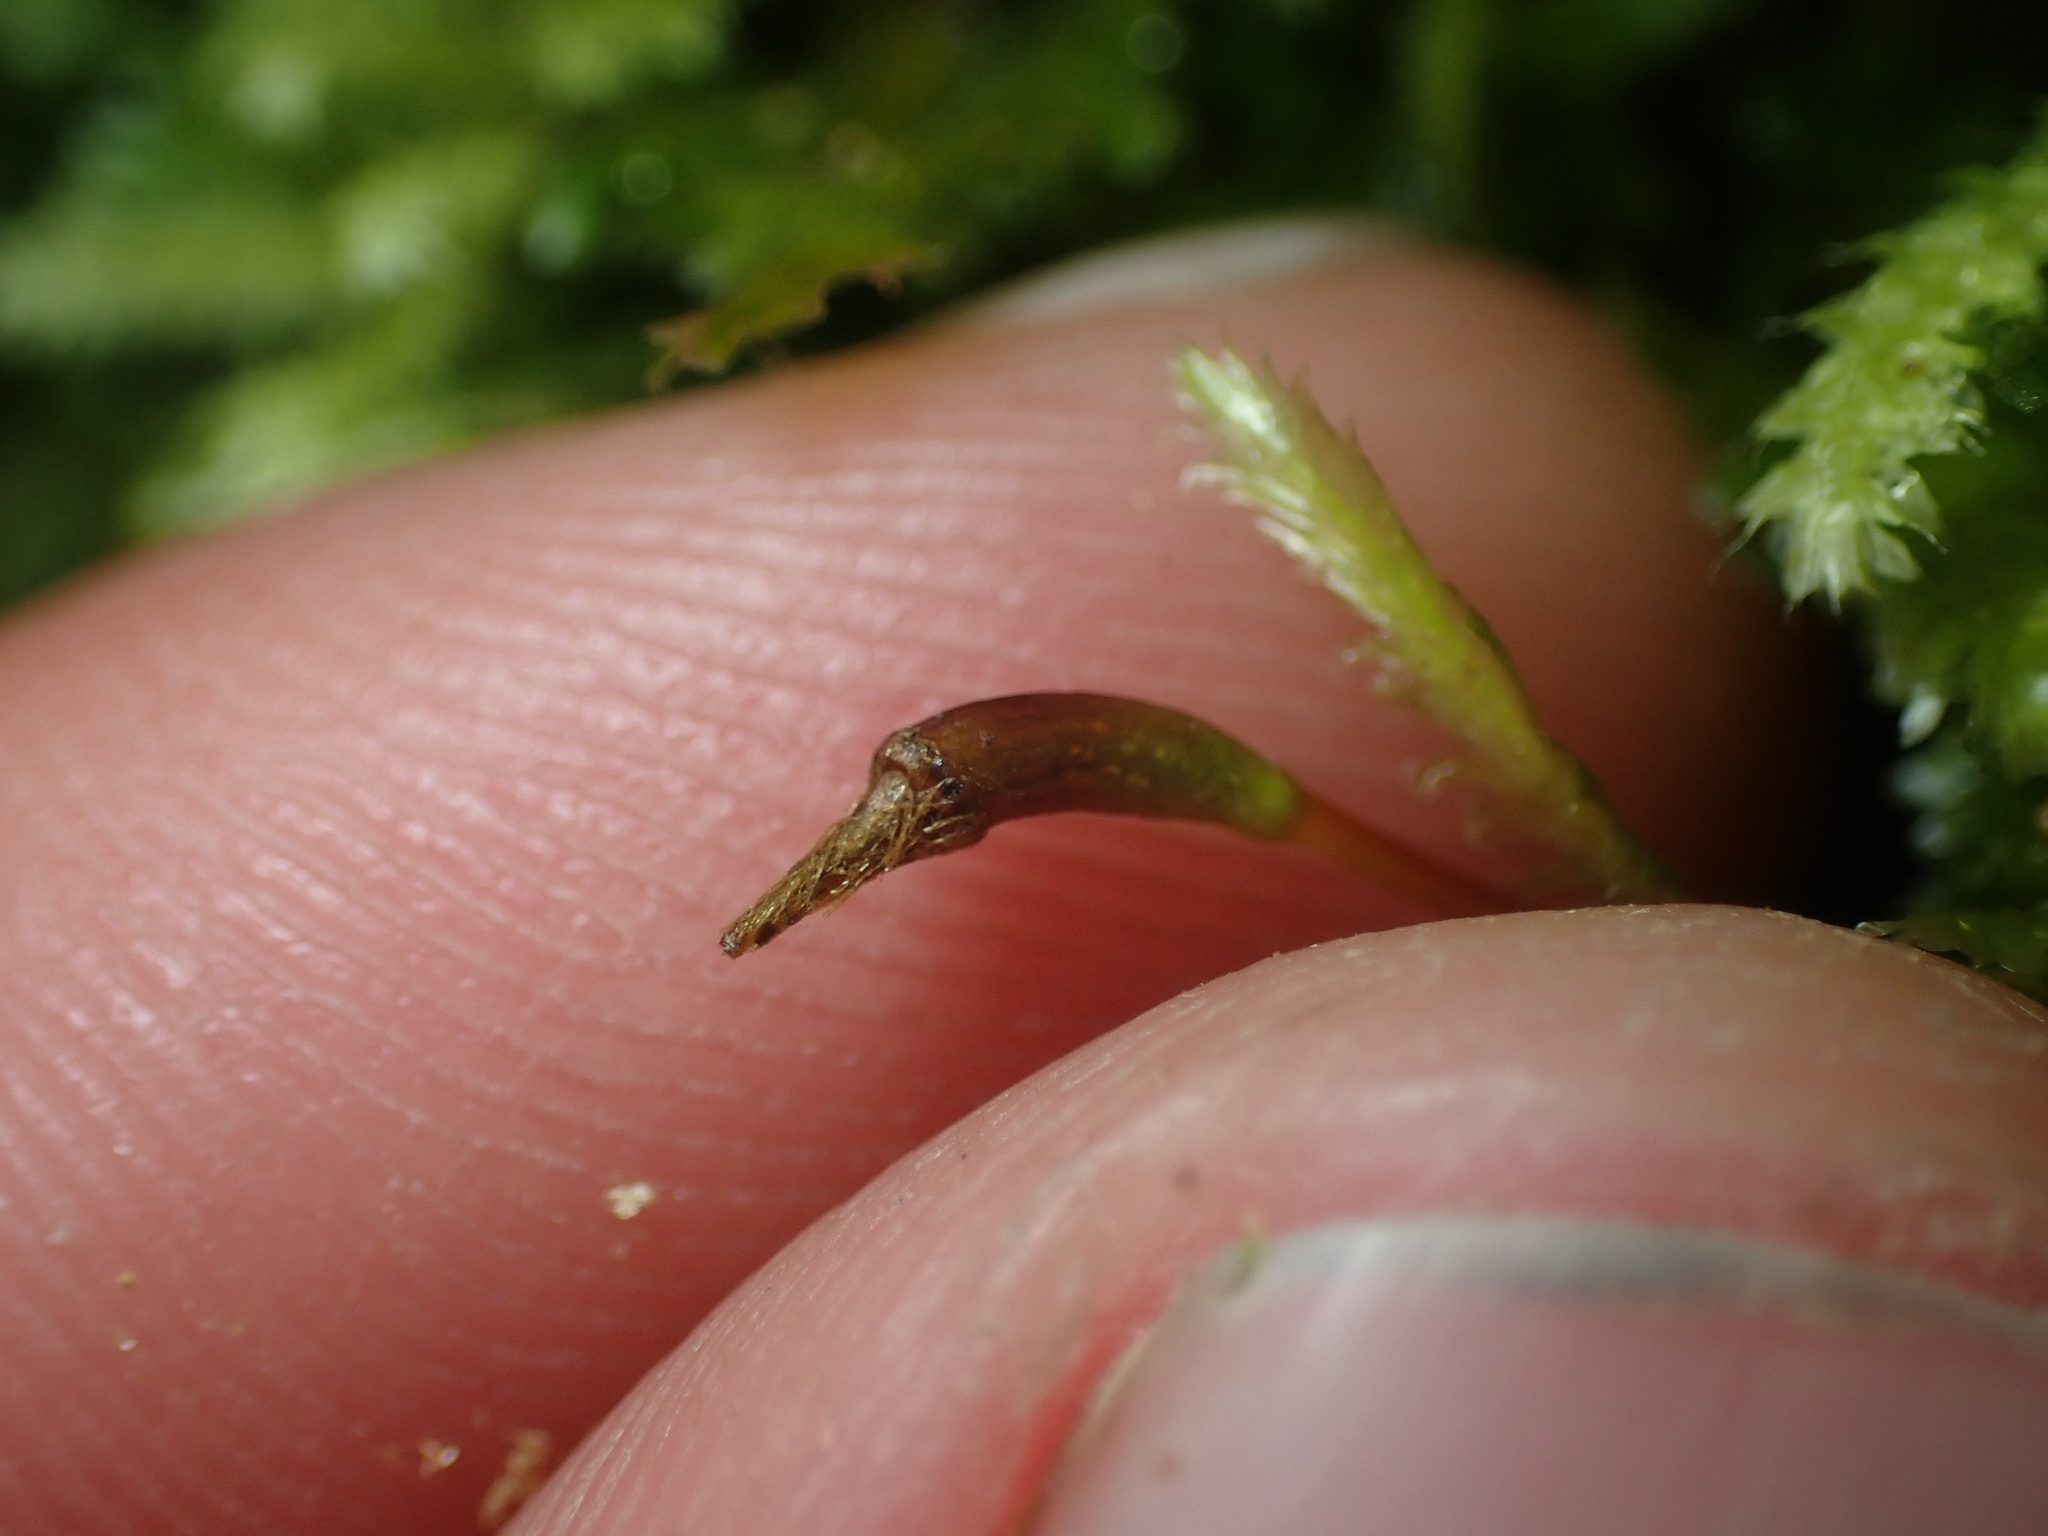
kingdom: Plantae
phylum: Bryophyta
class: Bryopsida
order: Hypnodendrales
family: Racopilaceae
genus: Racopilum
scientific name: Racopilum cuspidigerum
